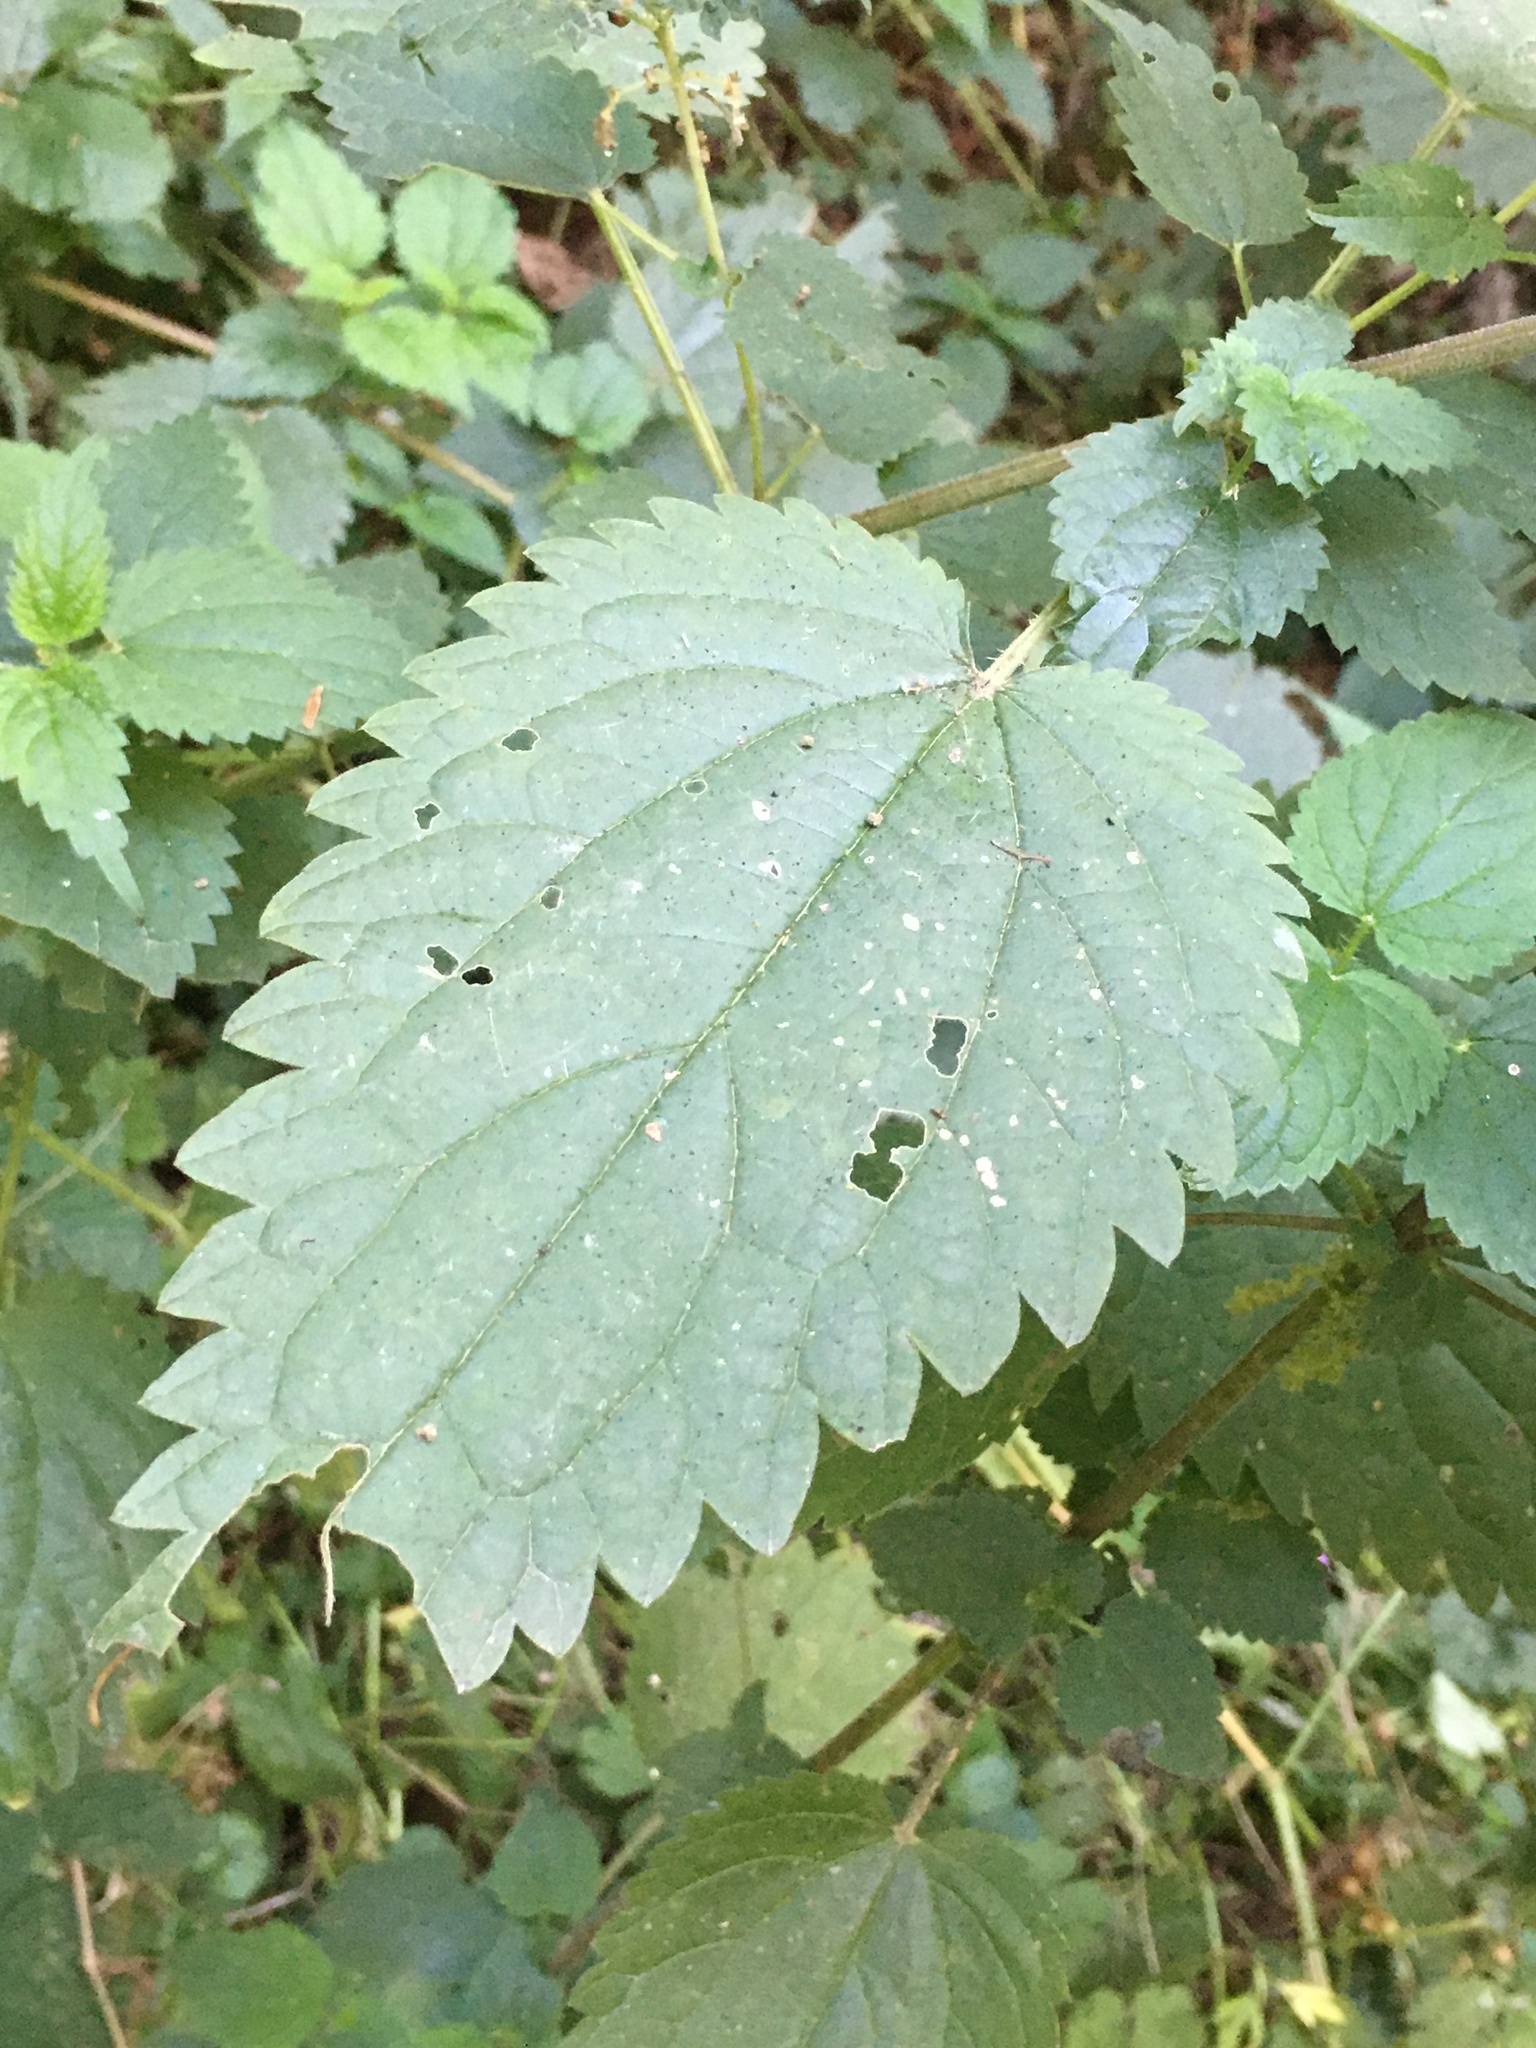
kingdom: Plantae
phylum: Tracheophyta
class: Magnoliopsida
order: Rosales
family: Urticaceae
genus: Urtica
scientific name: Urtica dioica
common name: Common nettle
